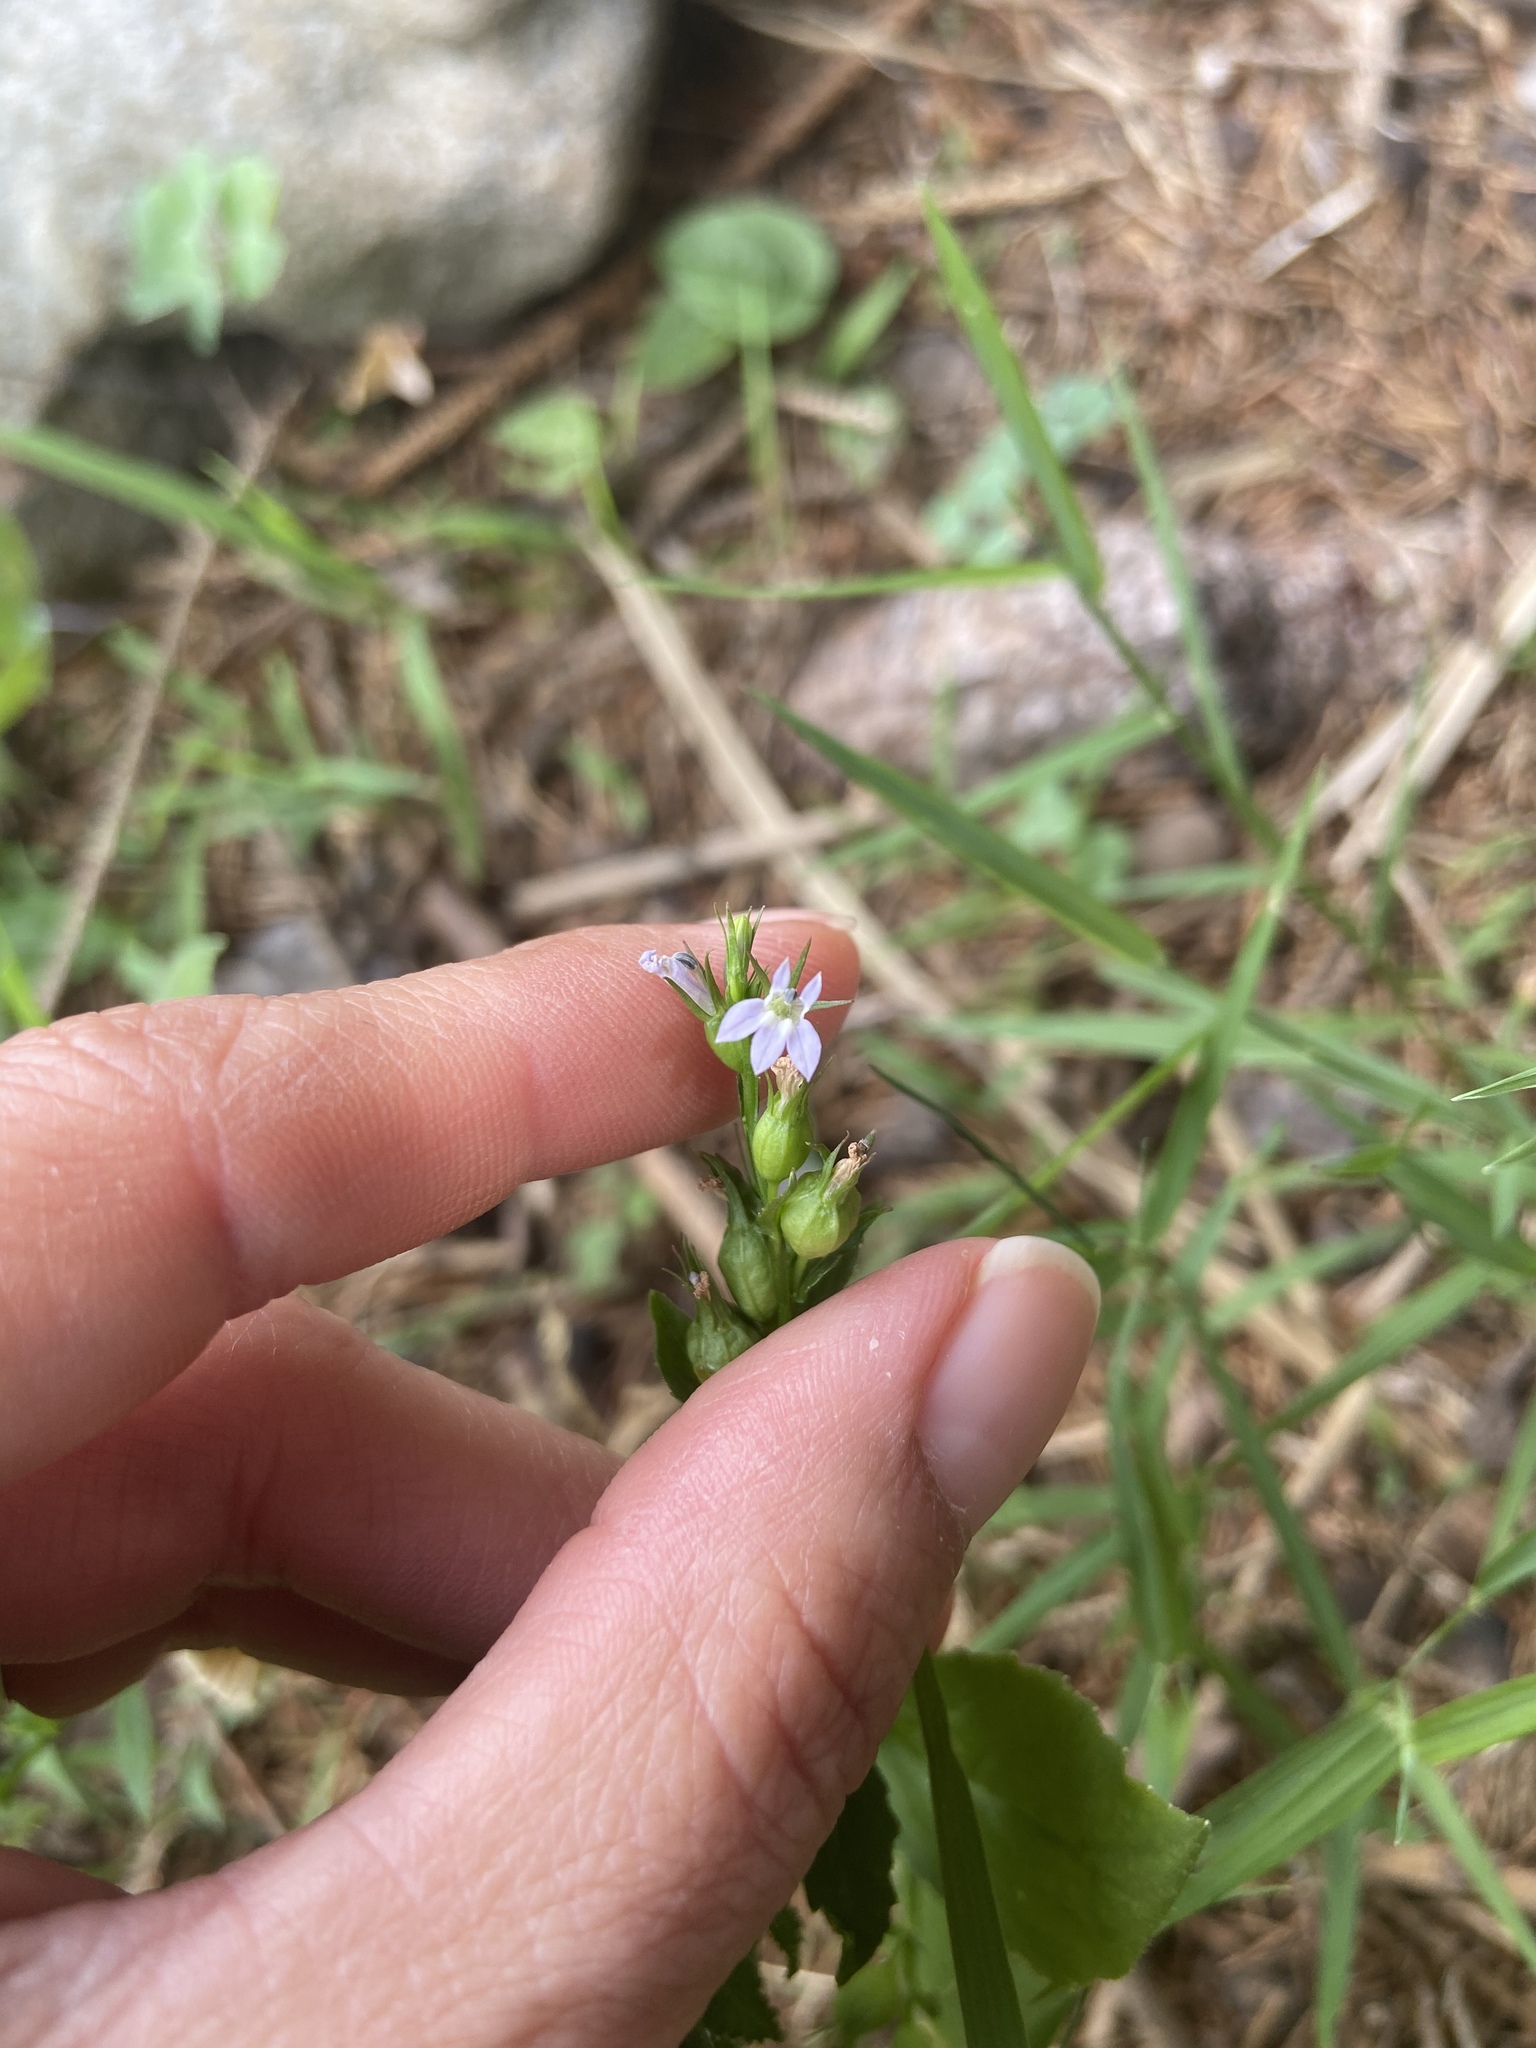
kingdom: Plantae
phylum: Tracheophyta
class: Magnoliopsida
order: Asterales
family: Campanulaceae
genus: Lobelia
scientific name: Lobelia inflata
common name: Indian tobacco
